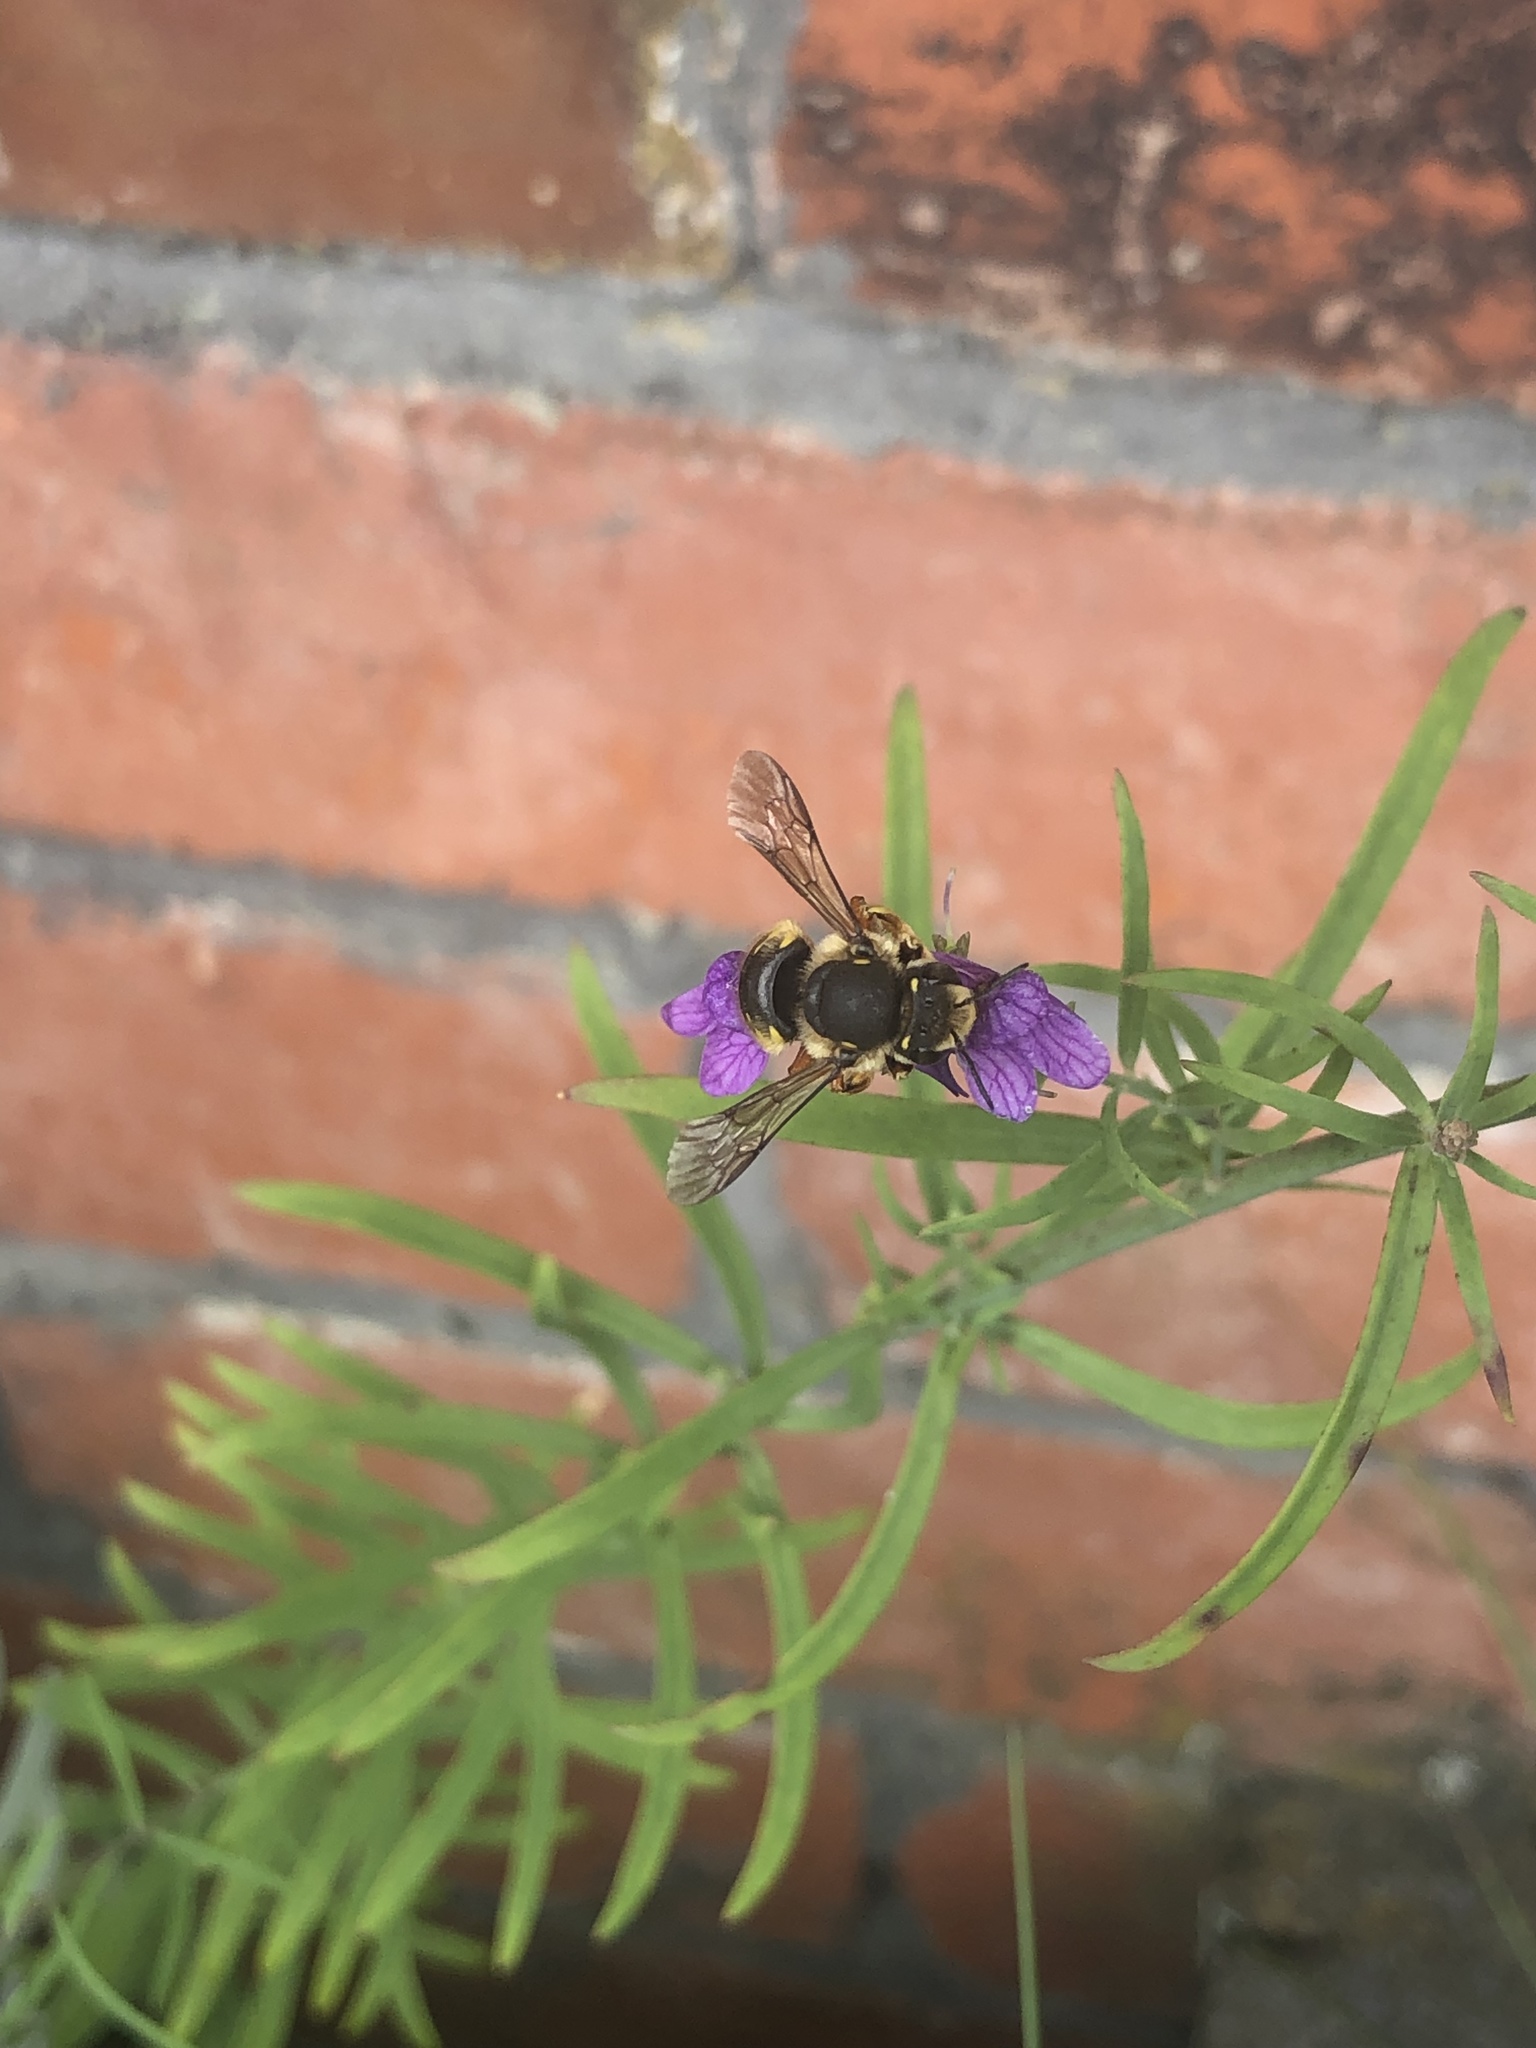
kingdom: Animalia
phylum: Arthropoda
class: Insecta
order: Hymenoptera
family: Megachilidae
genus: Anthidium
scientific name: Anthidium manicatum
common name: Wool carder bee
